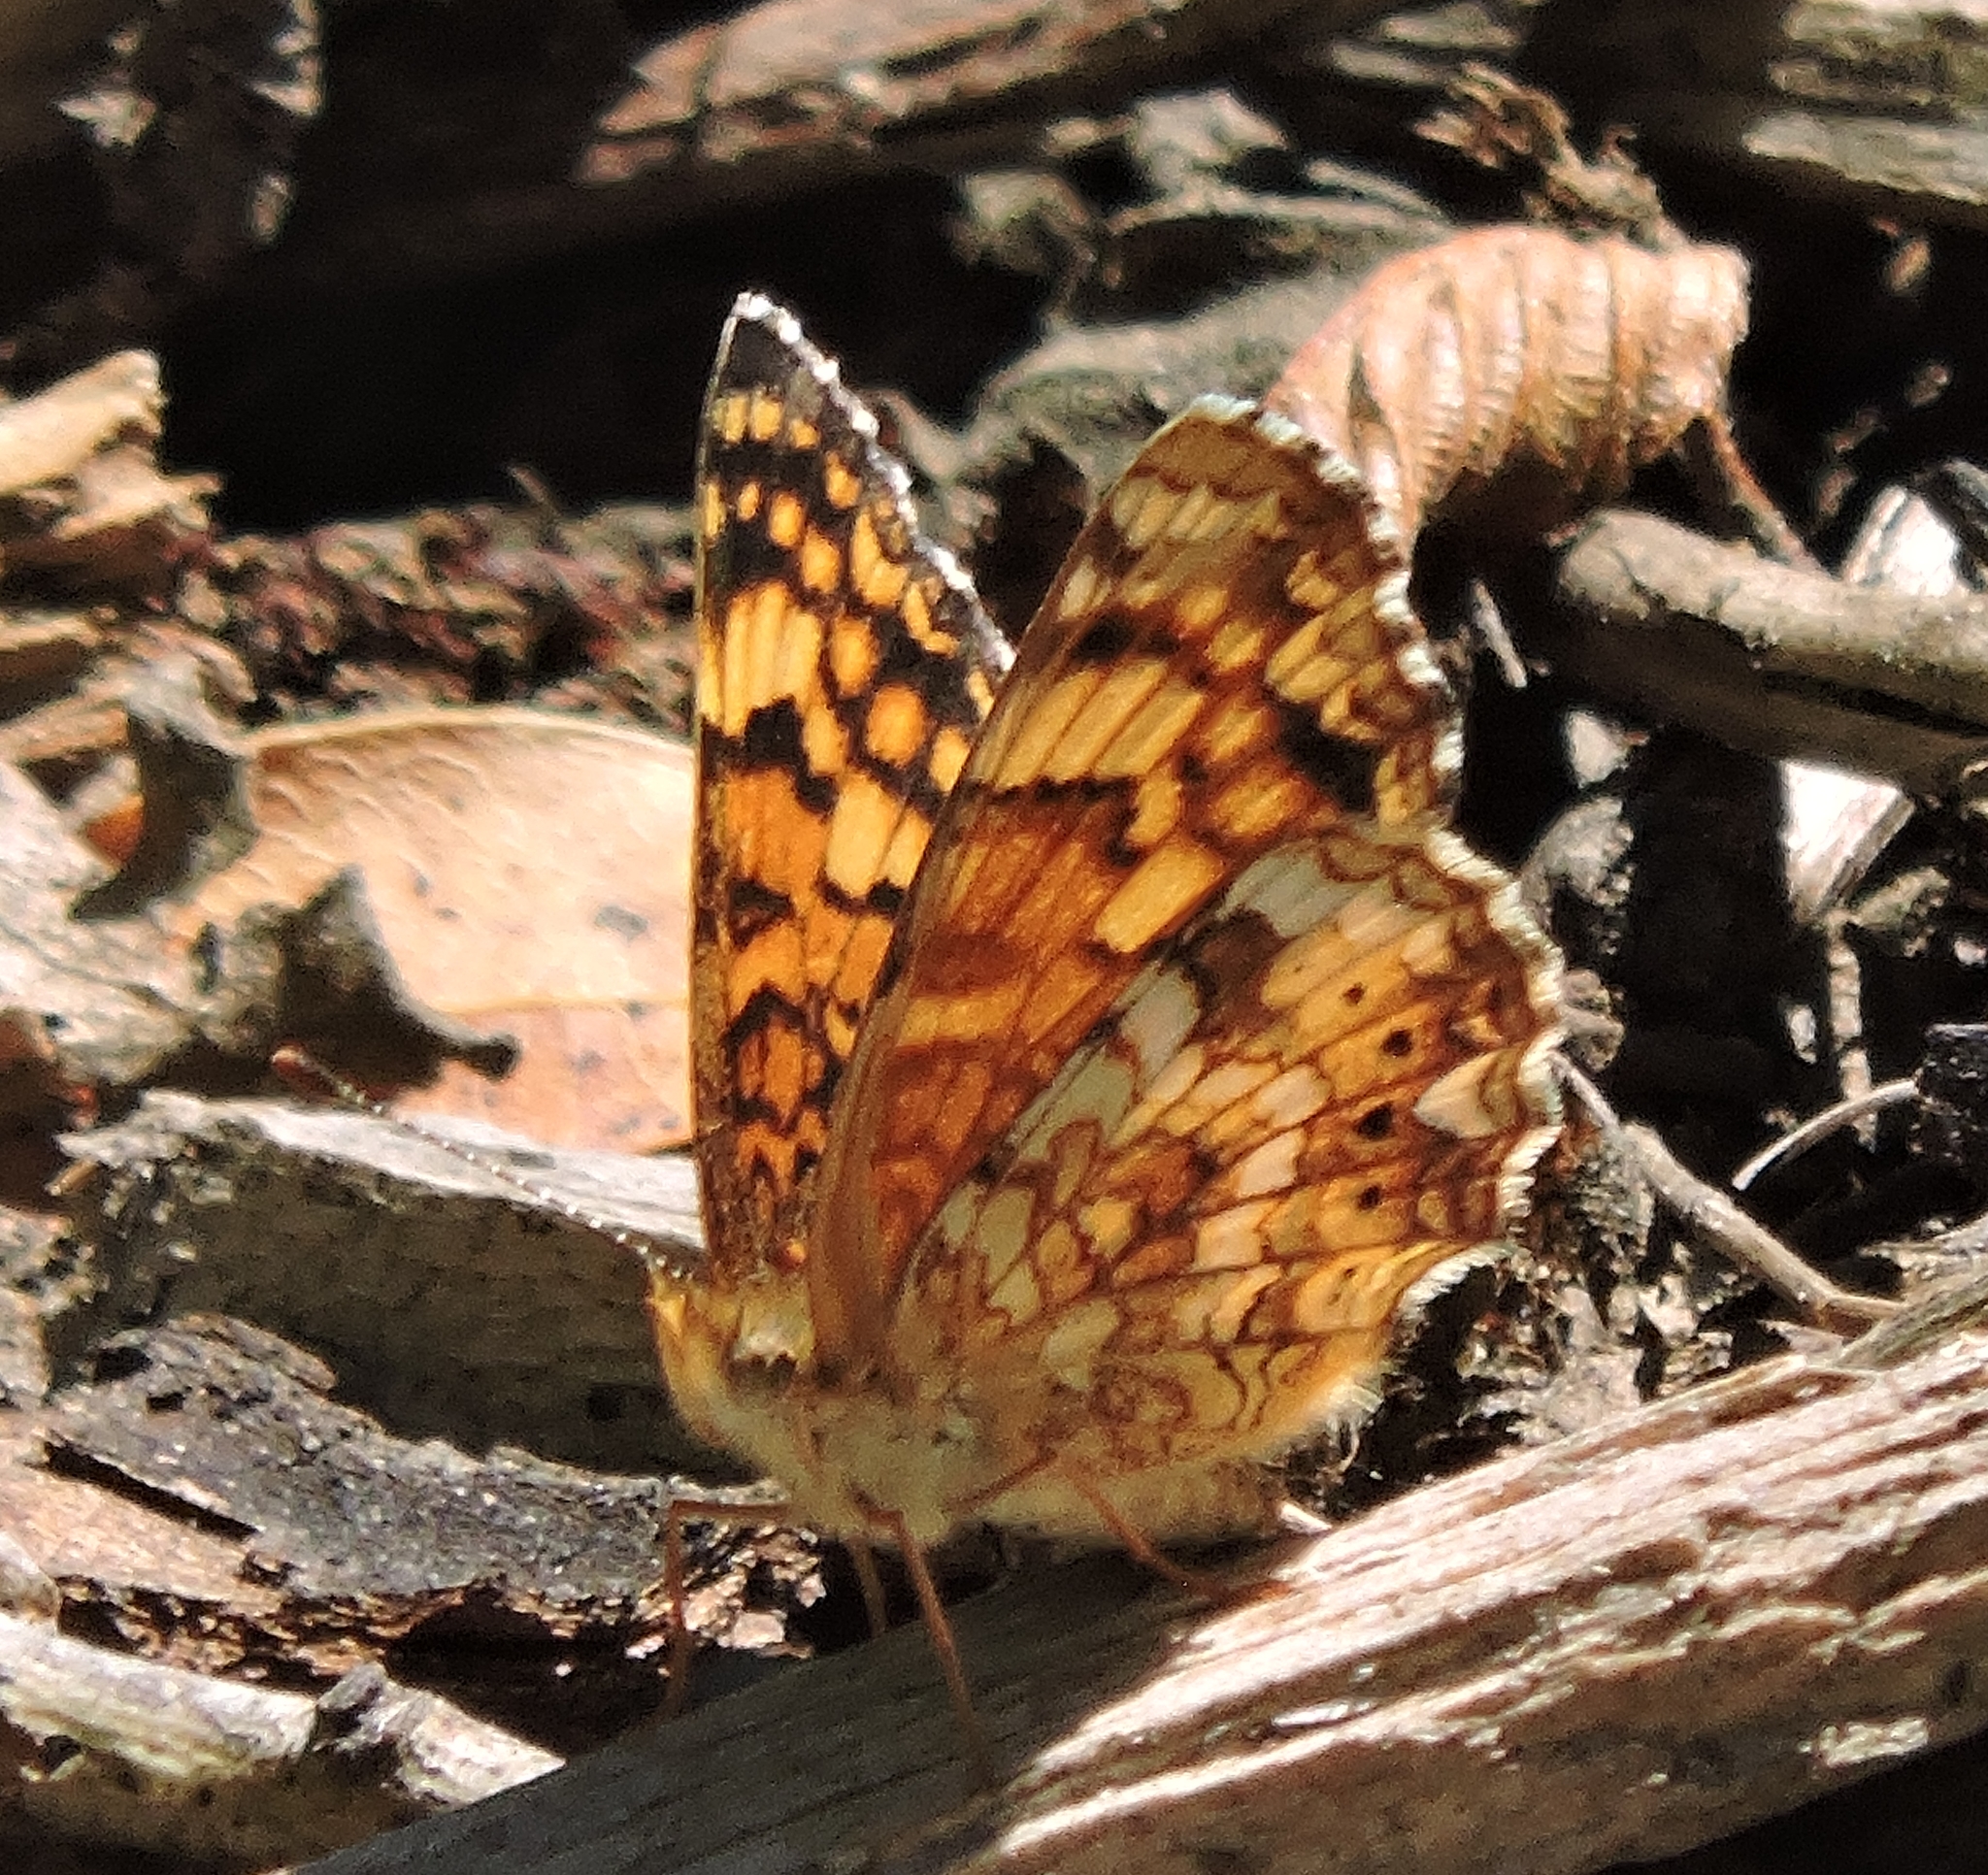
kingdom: Animalia
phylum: Arthropoda
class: Insecta
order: Lepidoptera
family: Nymphalidae
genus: Eresia
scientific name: Eresia aveyrona
